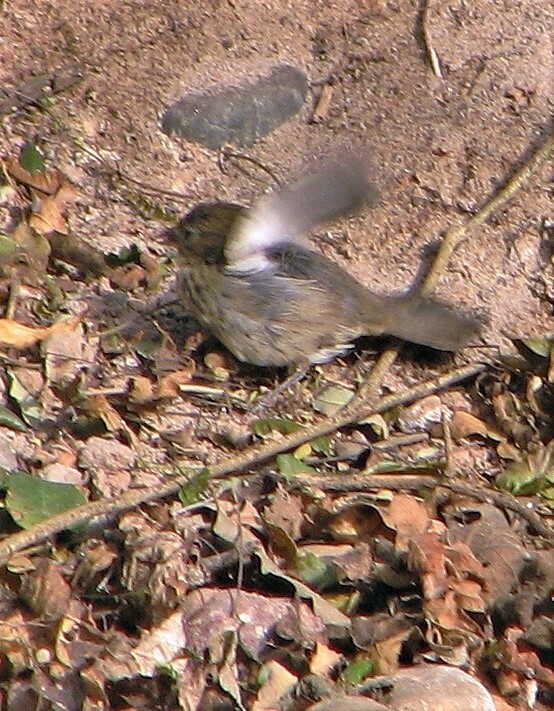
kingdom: Animalia
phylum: Chordata
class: Aves
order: Passeriformes
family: Thraupidae
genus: Volatinia
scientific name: Volatinia jacarina
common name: Blue-black grassquit
